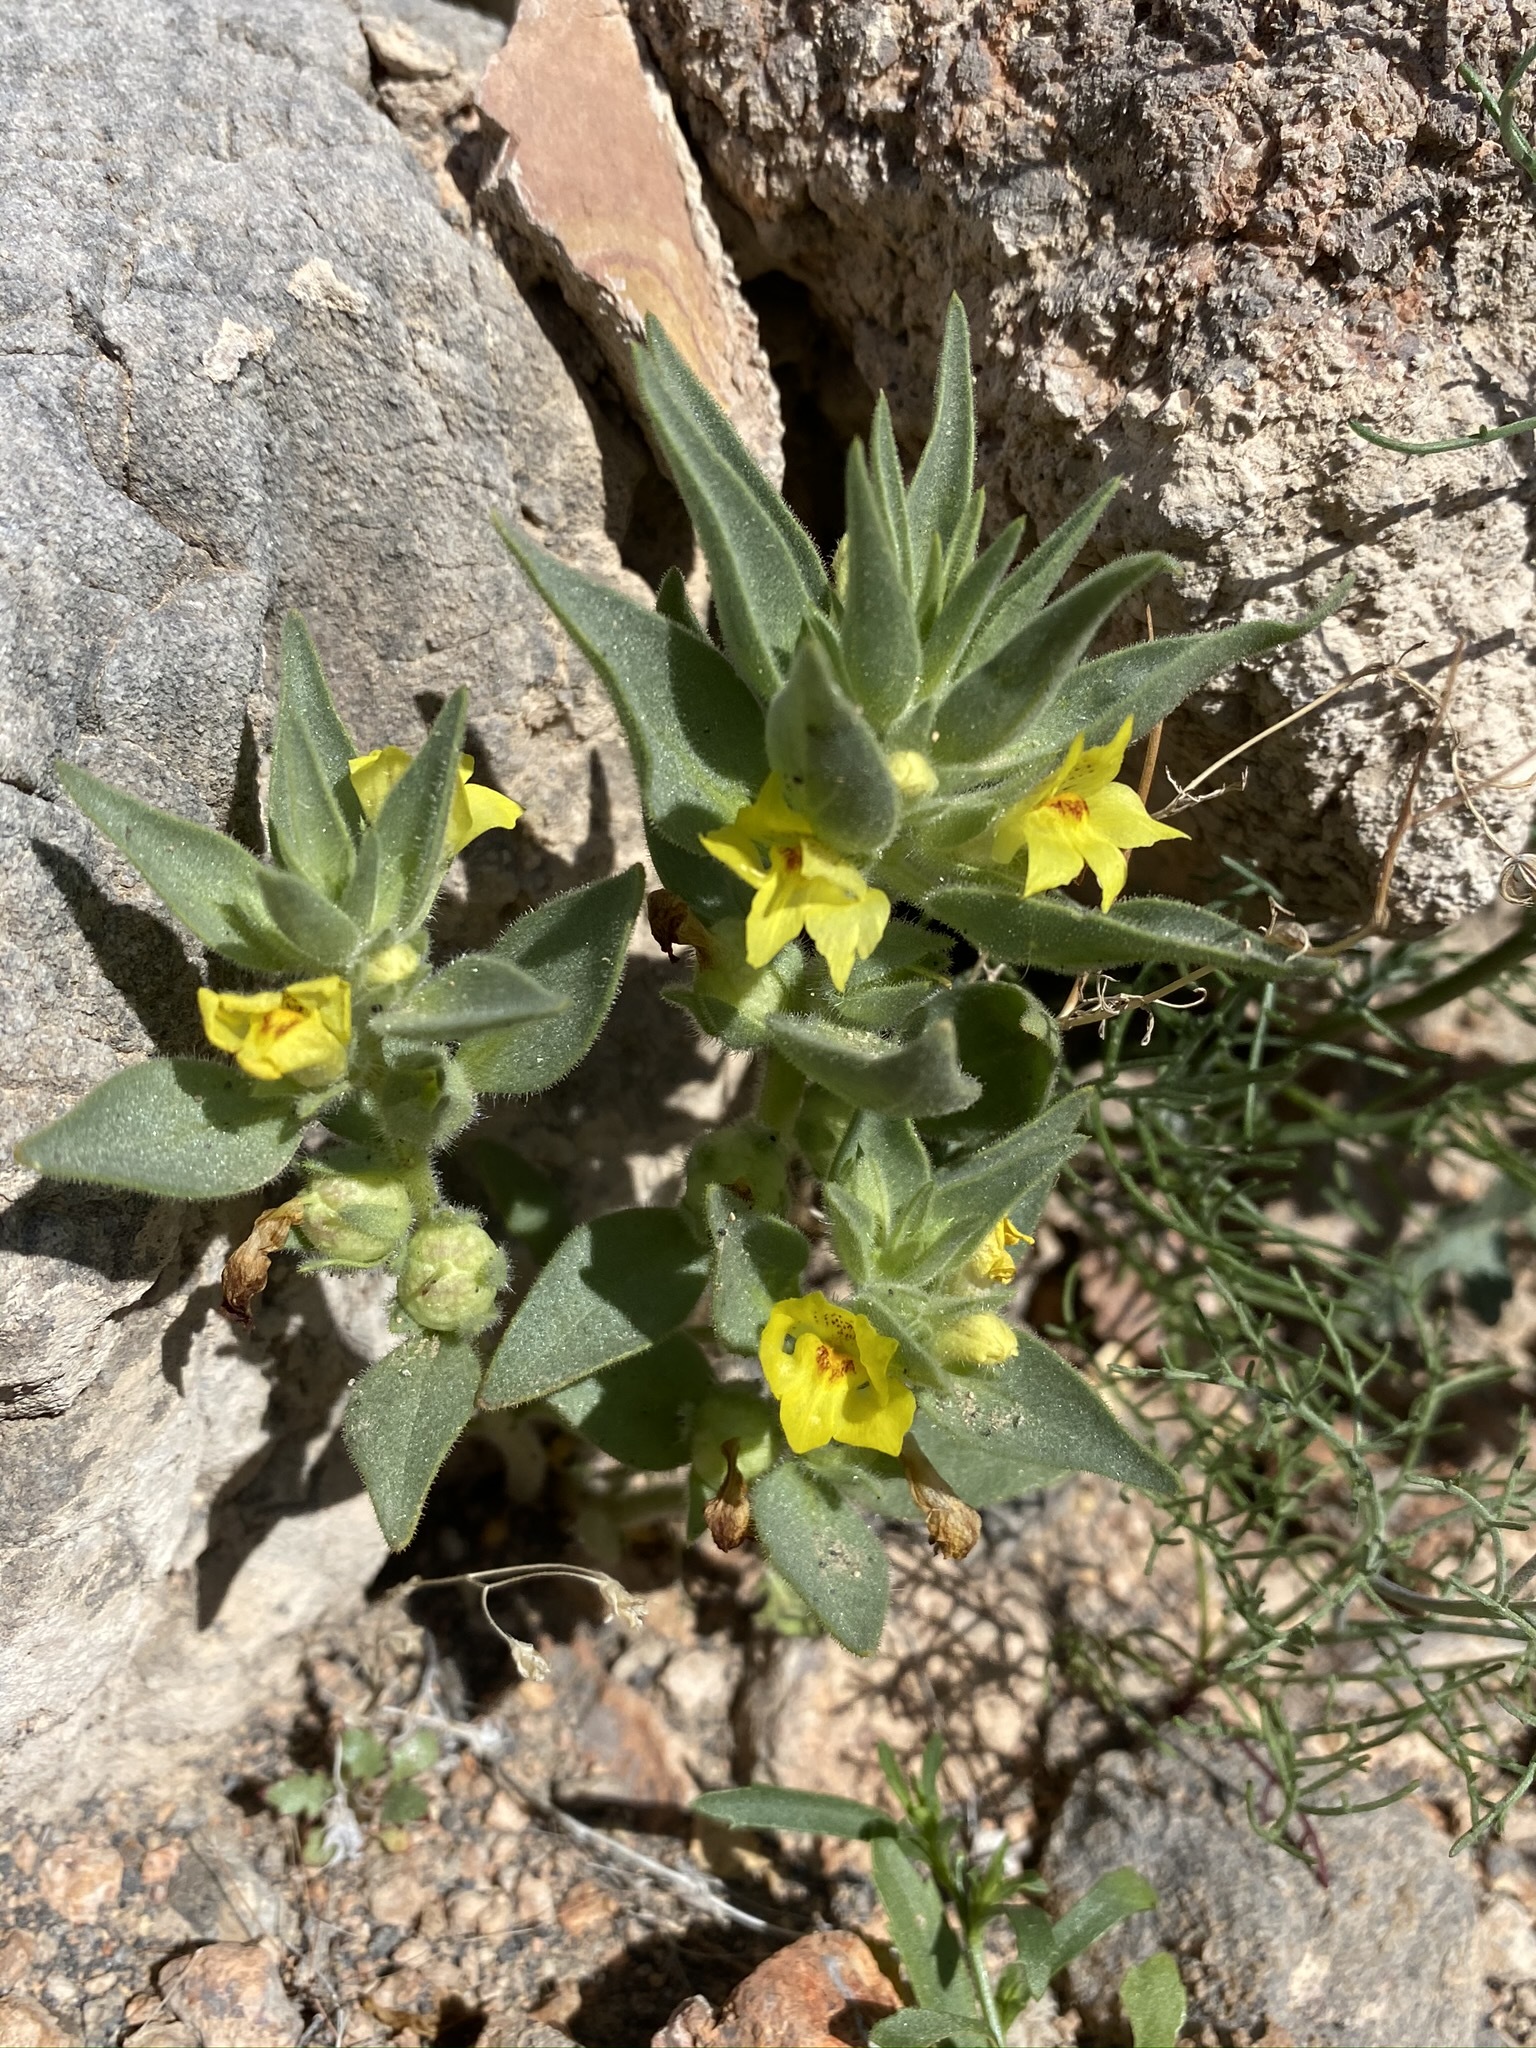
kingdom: Plantae
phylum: Tracheophyta
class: Magnoliopsida
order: Lamiales
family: Plantaginaceae
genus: Mohavea
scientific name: Mohavea breviflora
